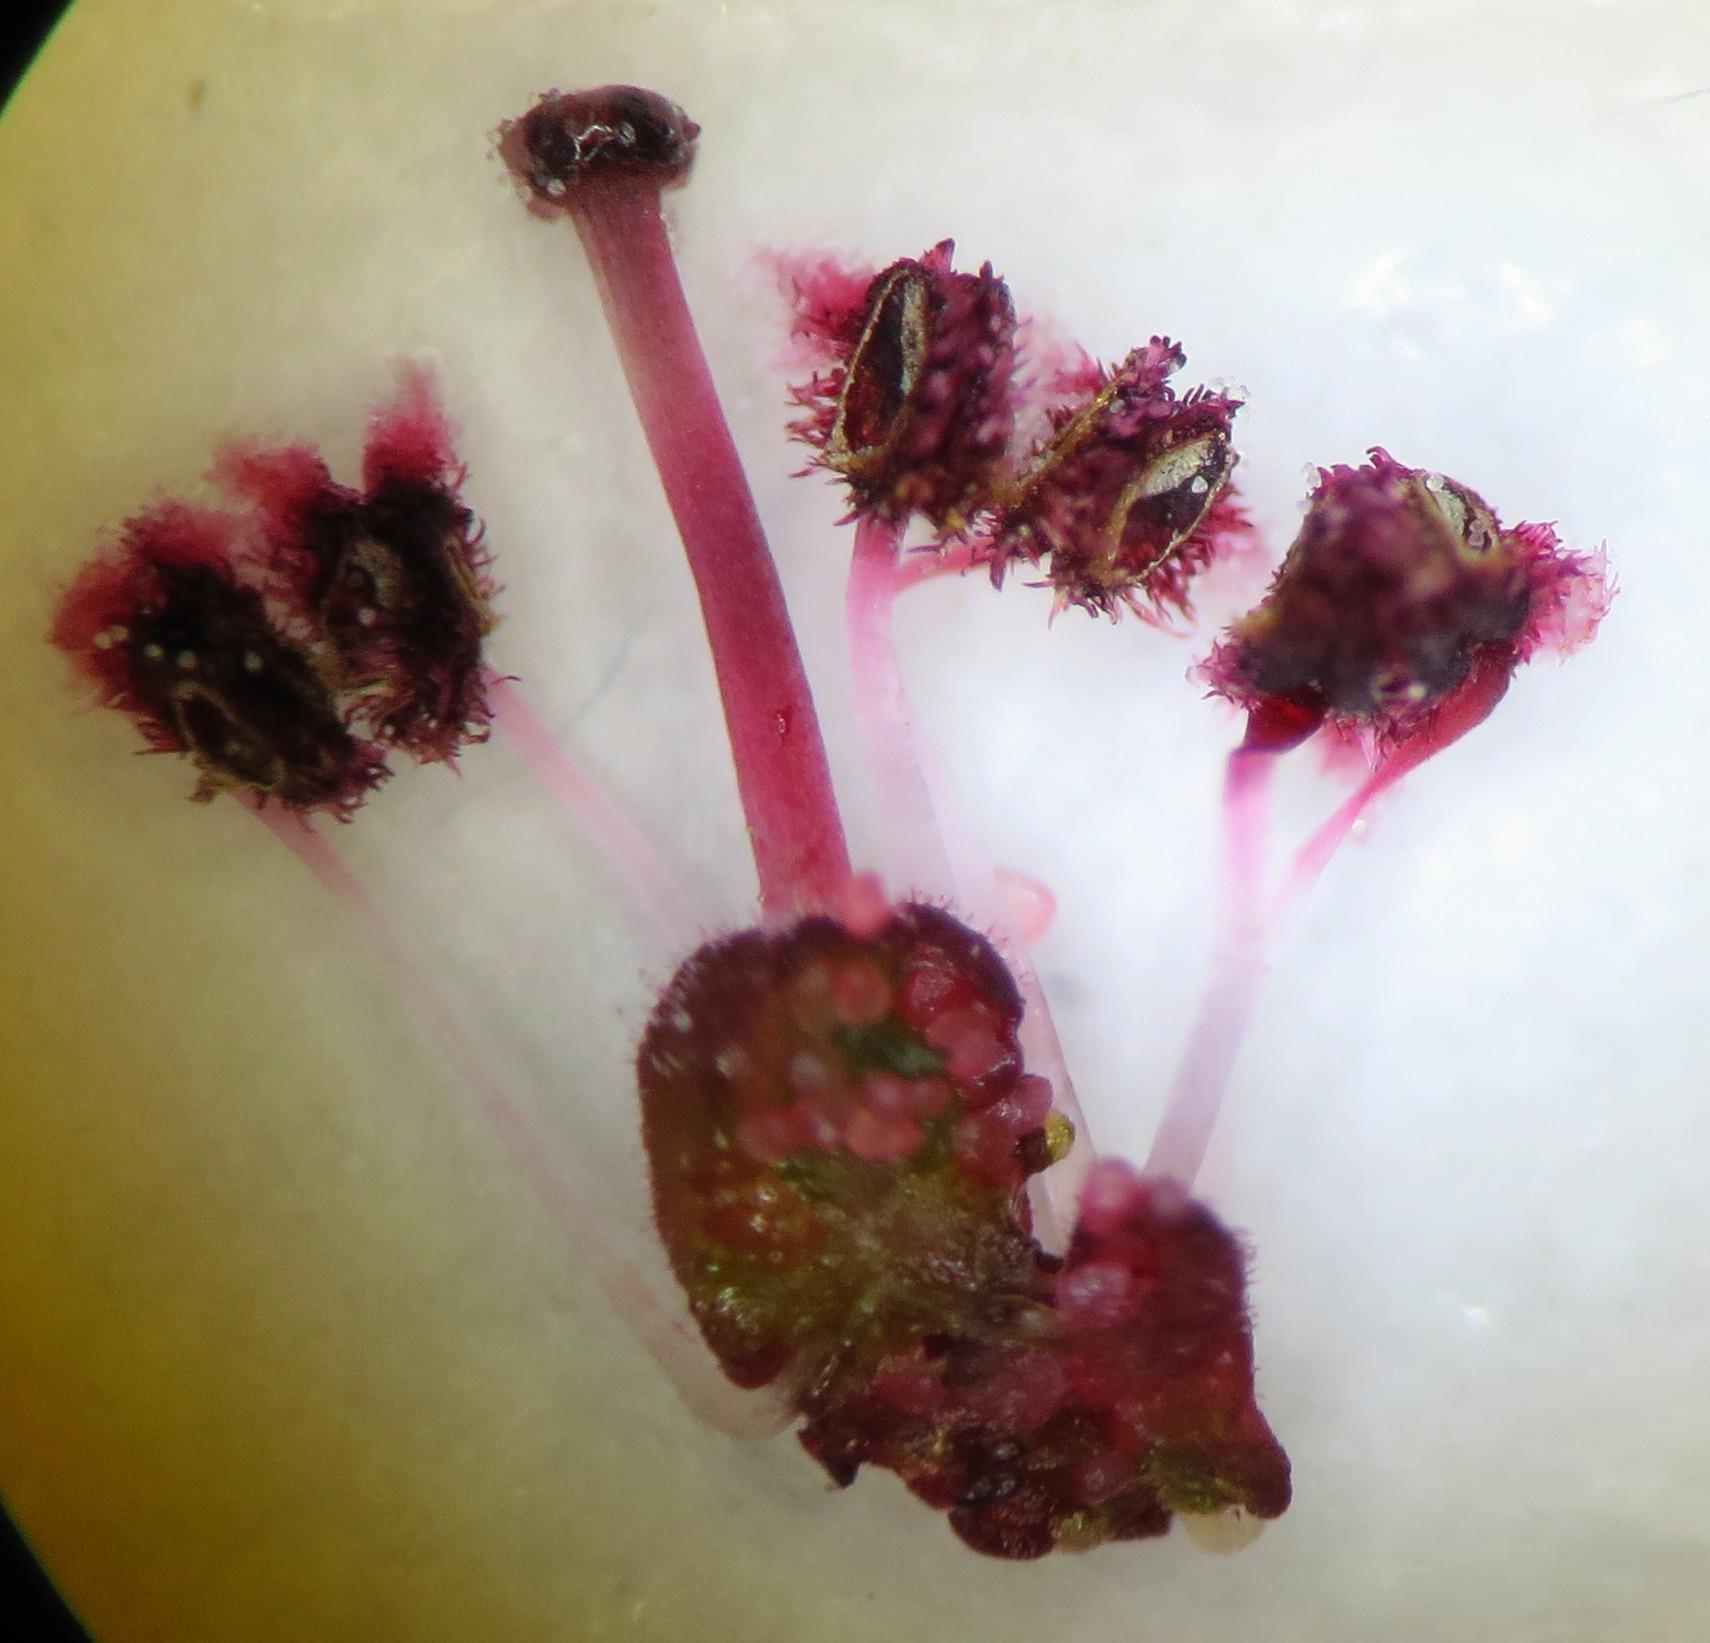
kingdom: Plantae
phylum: Tracheophyta
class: Magnoliopsida
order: Ericales
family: Ericaceae
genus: Erica
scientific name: Erica multumbellifera
